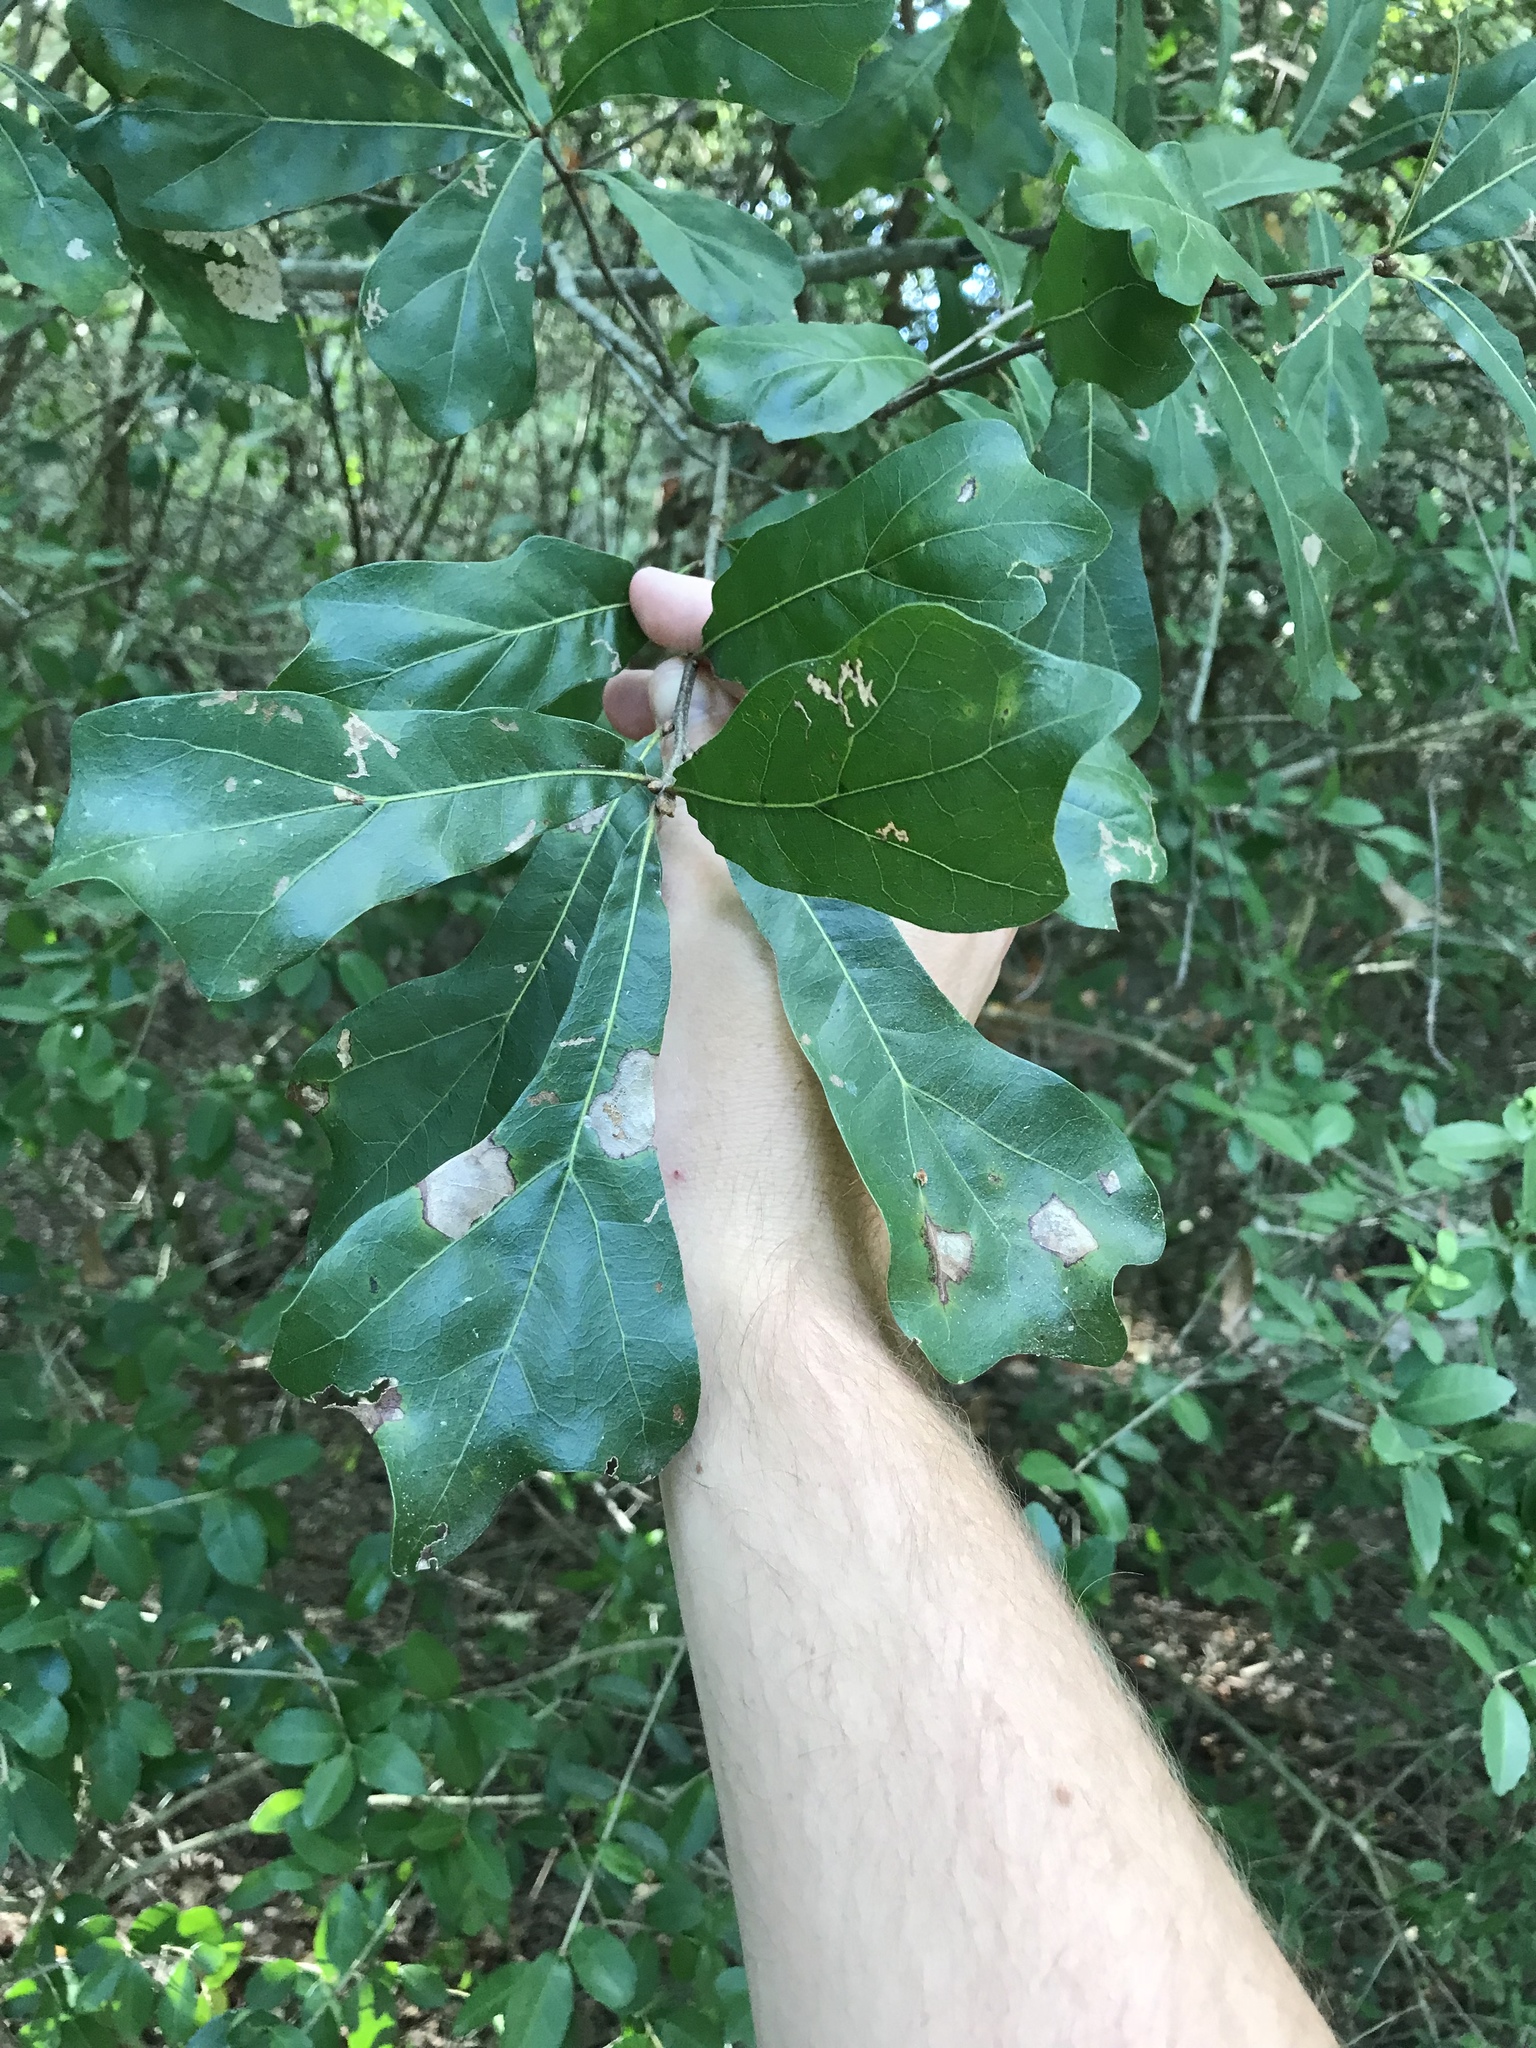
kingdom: Plantae
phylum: Tracheophyta
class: Magnoliopsida
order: Fagales
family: Fagaceae
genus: Quercus
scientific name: Quercus nigra
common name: Water oak
